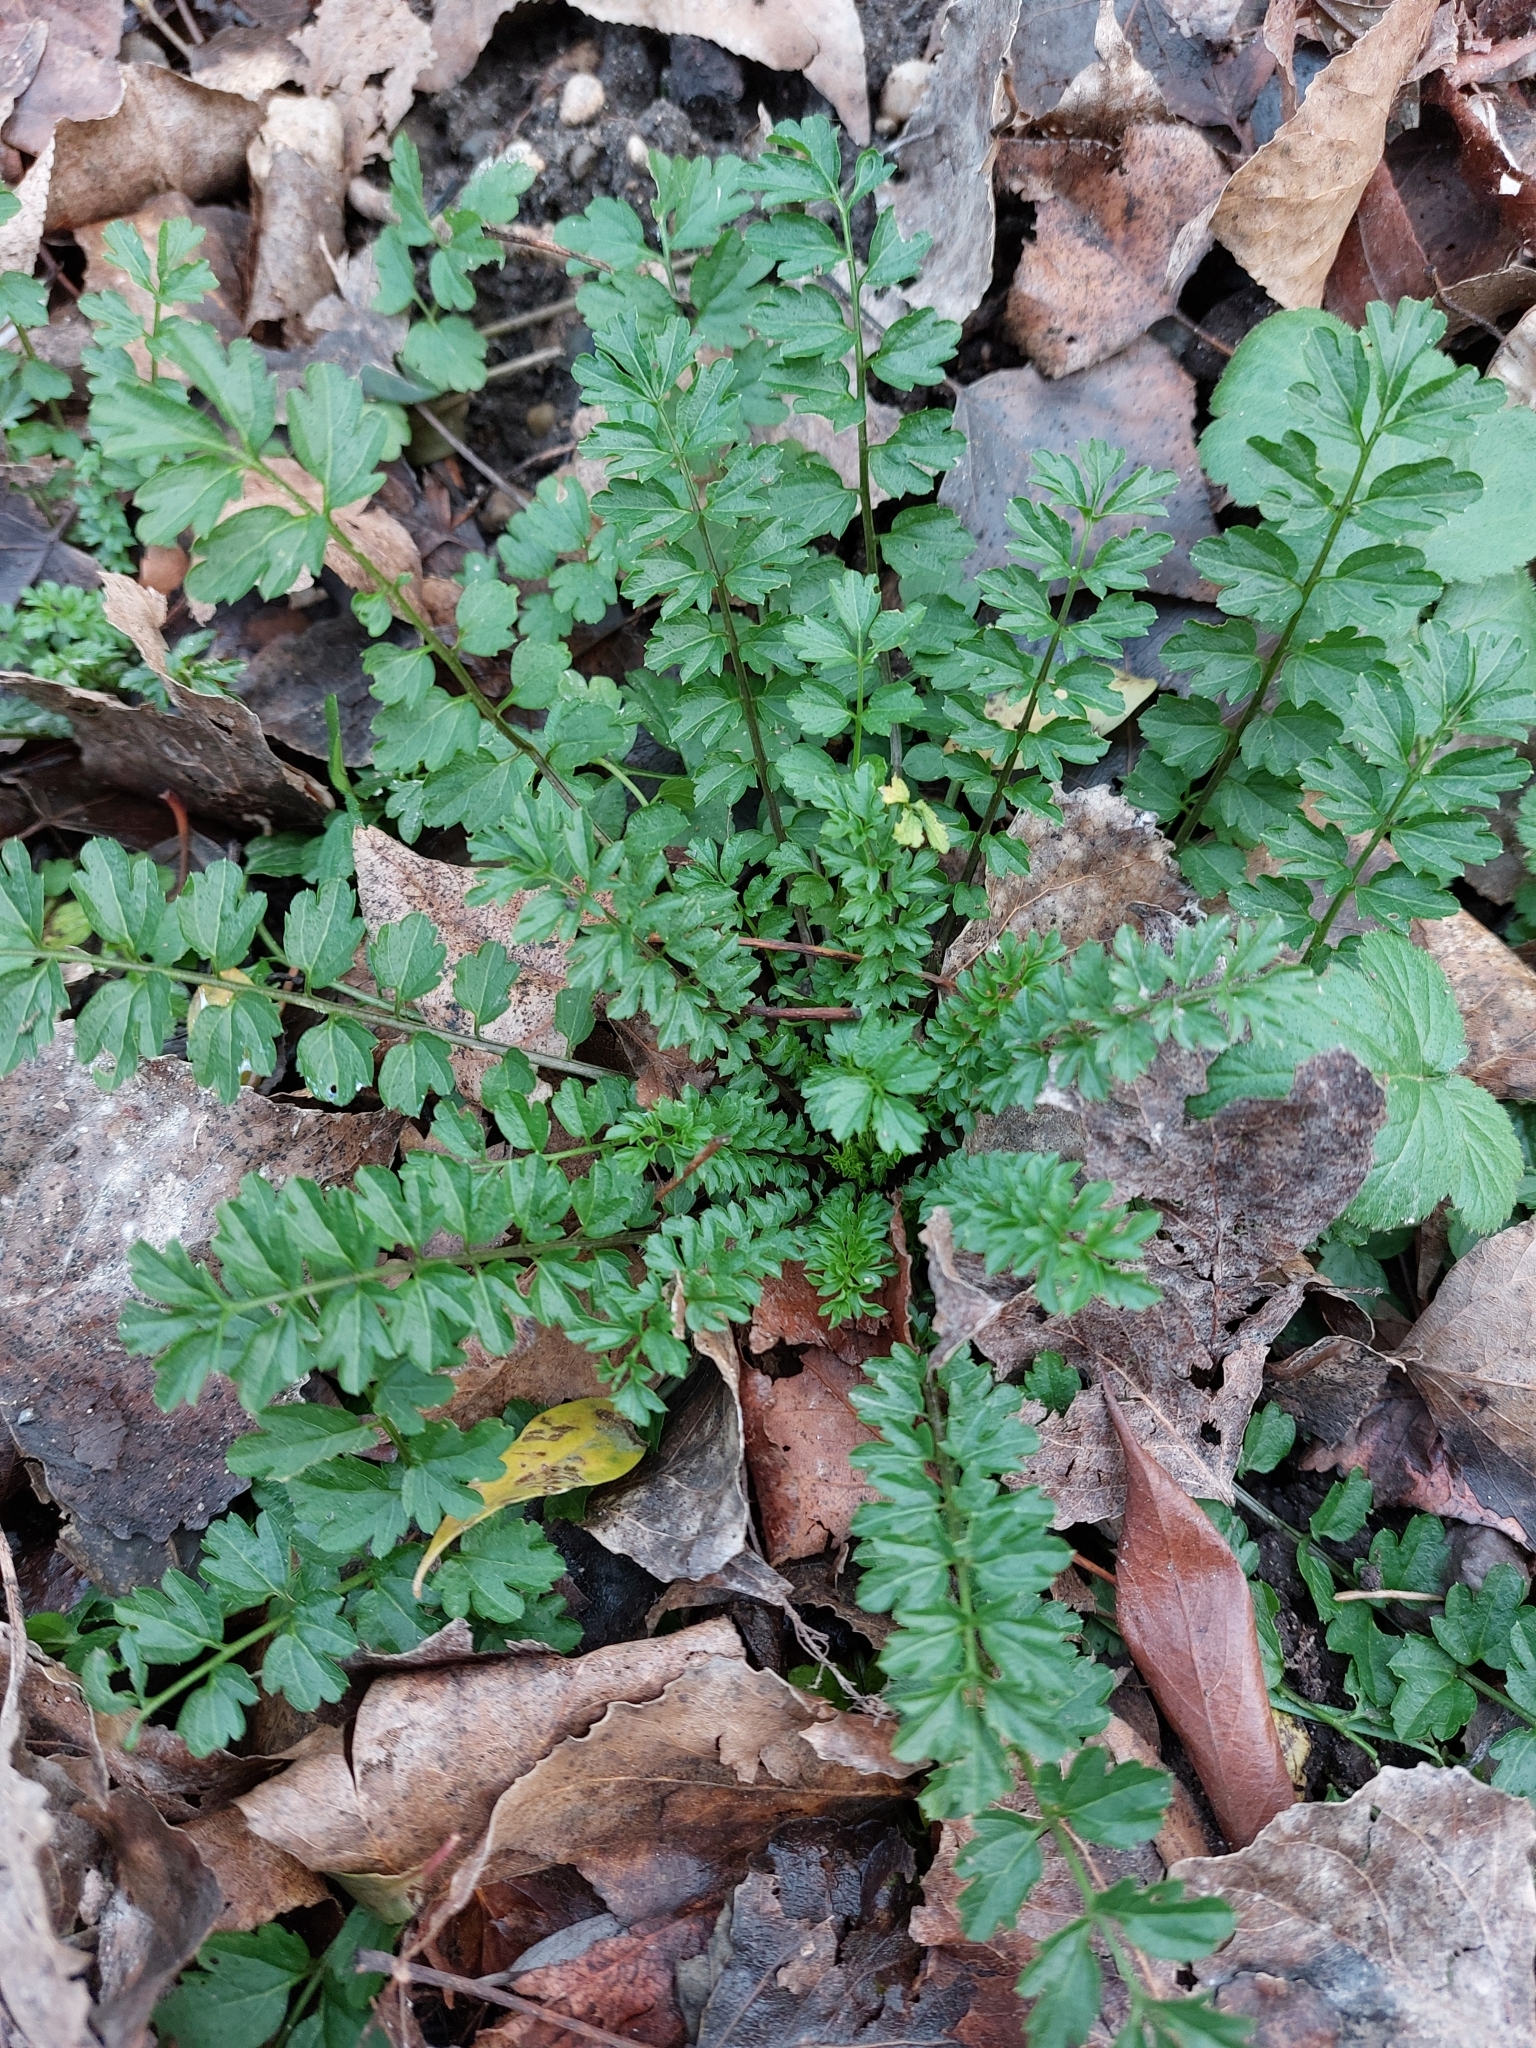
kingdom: Plantae
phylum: Tracheophyta
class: Magnoliopsida
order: Brassicales
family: Brassicaceae
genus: Cardamine
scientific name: Cardamine impatiens
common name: Narrow-leaved bitter-cress
